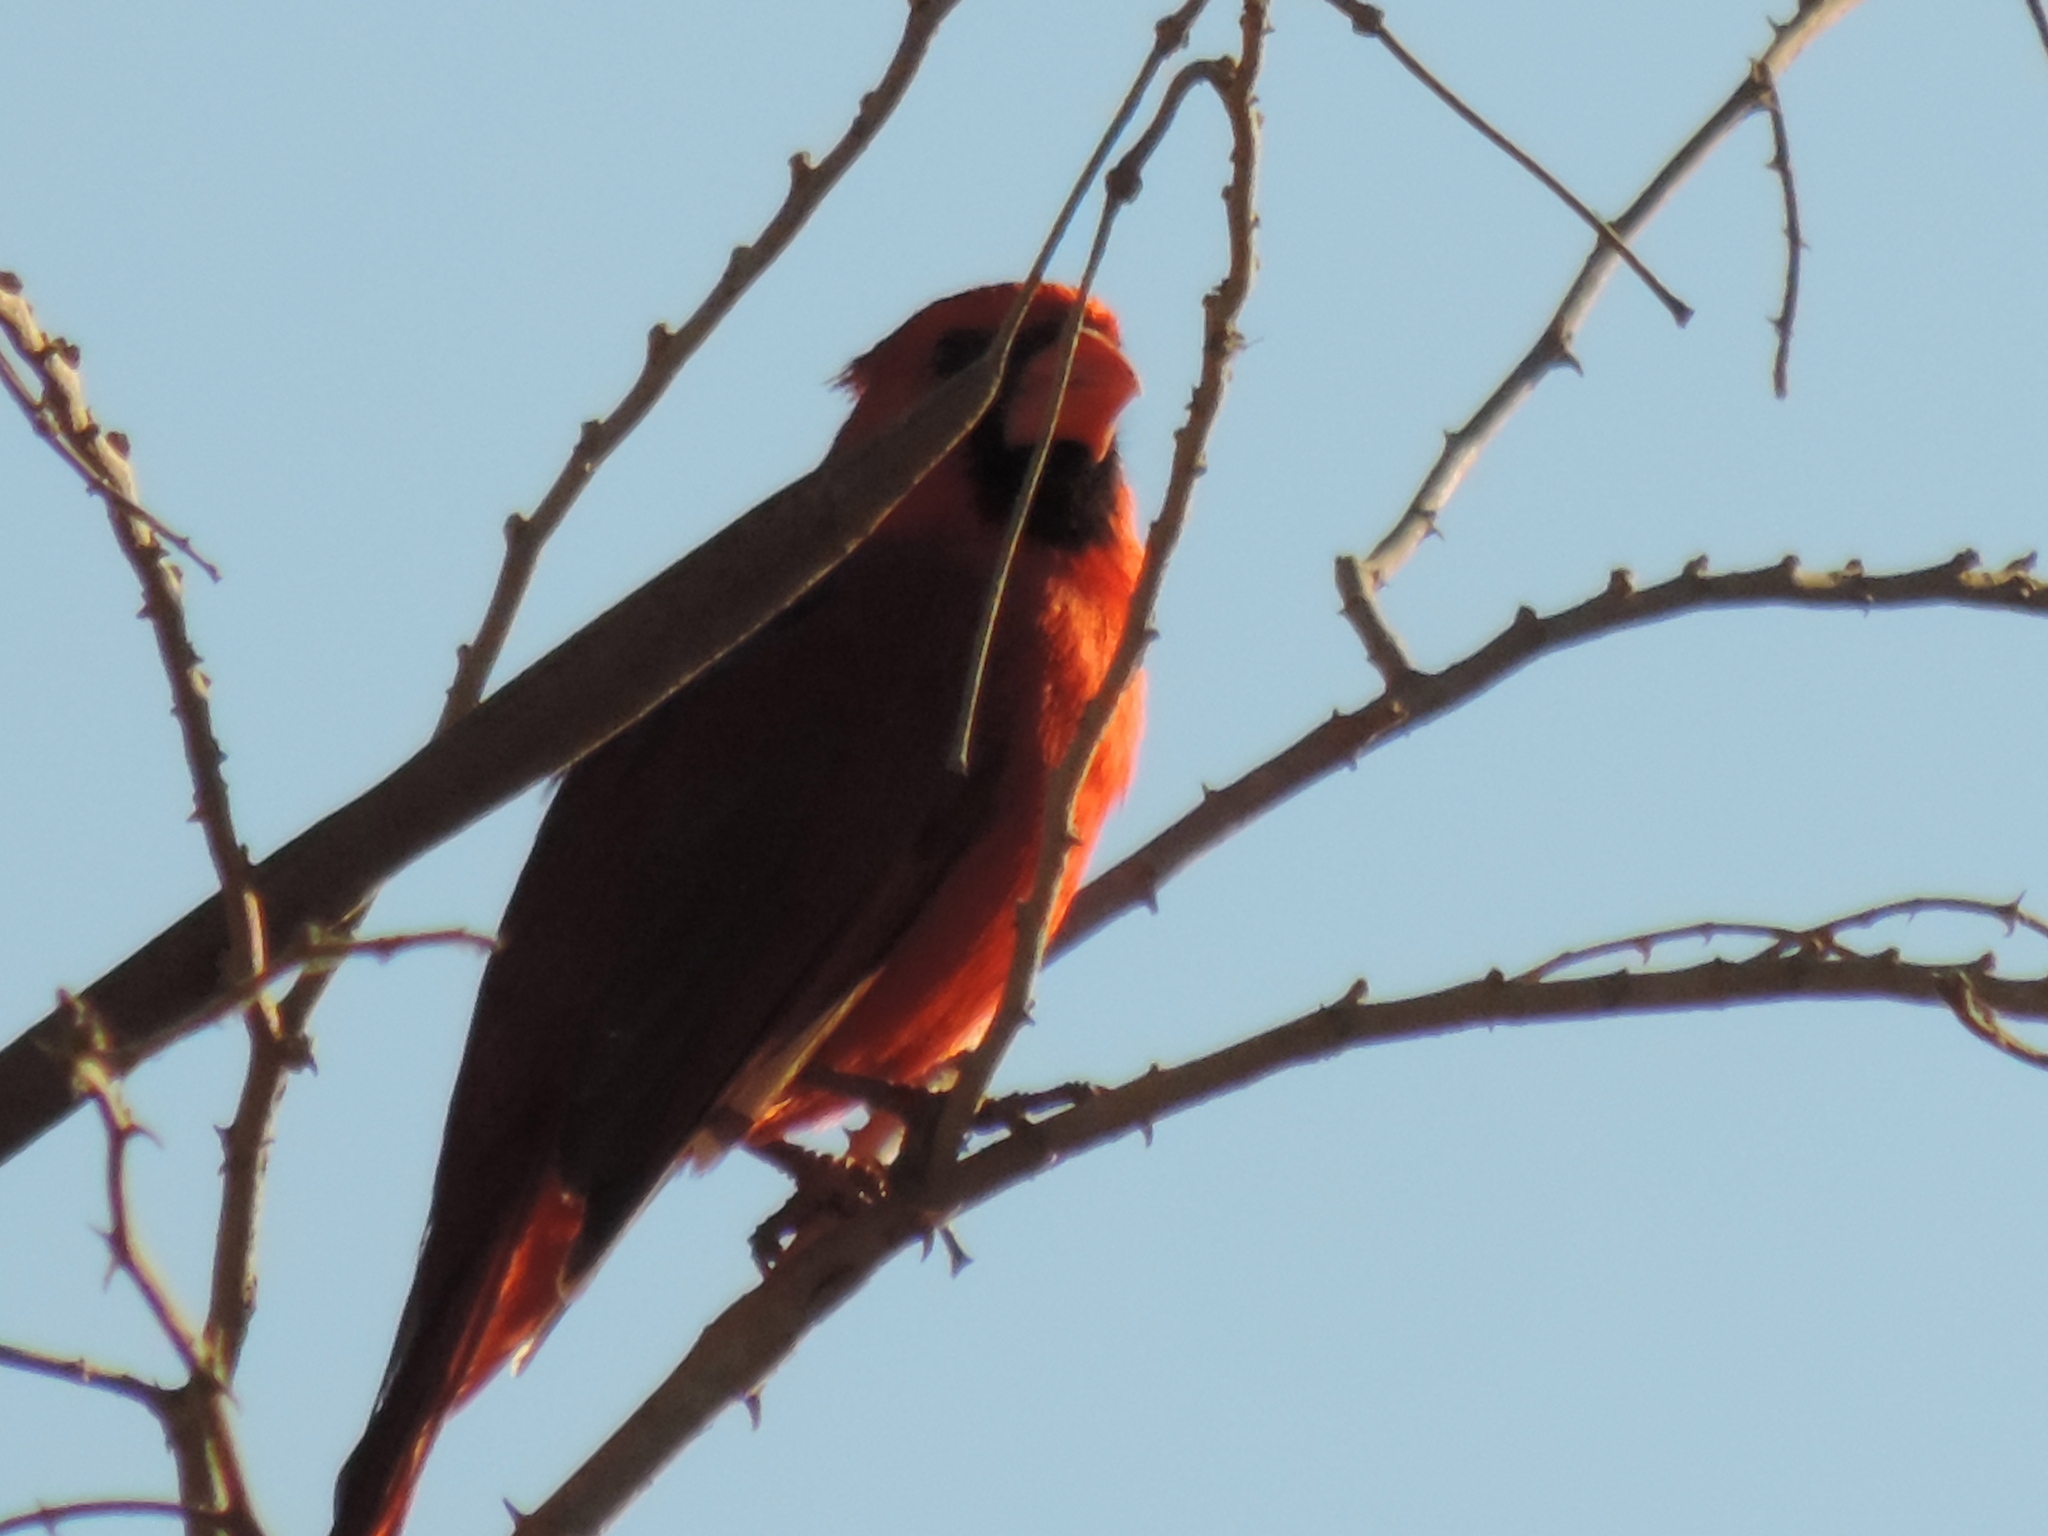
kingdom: Animalia
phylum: Chordata
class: Aves
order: Passeriformes
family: Cardinalidae
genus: Cardinalis
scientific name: Cardinalis cardinalis
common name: Northern cardinal
